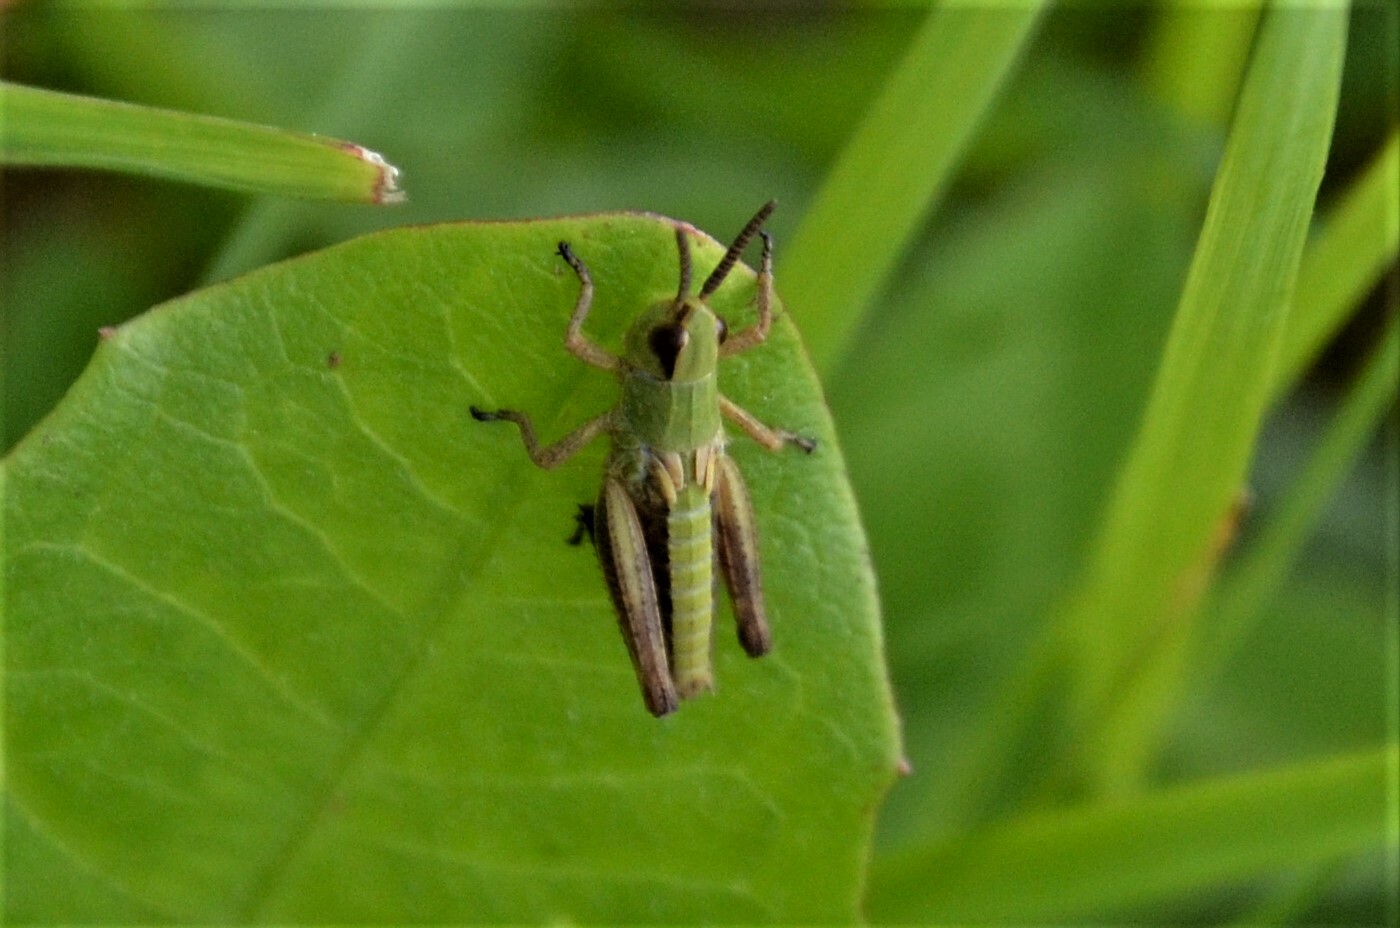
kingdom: Animalia
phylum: Arthropoda
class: Insecta
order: Orthoptera
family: Acrididae
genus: Pseudochorthippus
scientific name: Pseudochorthippus parallelus
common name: Meadow grasshopper
